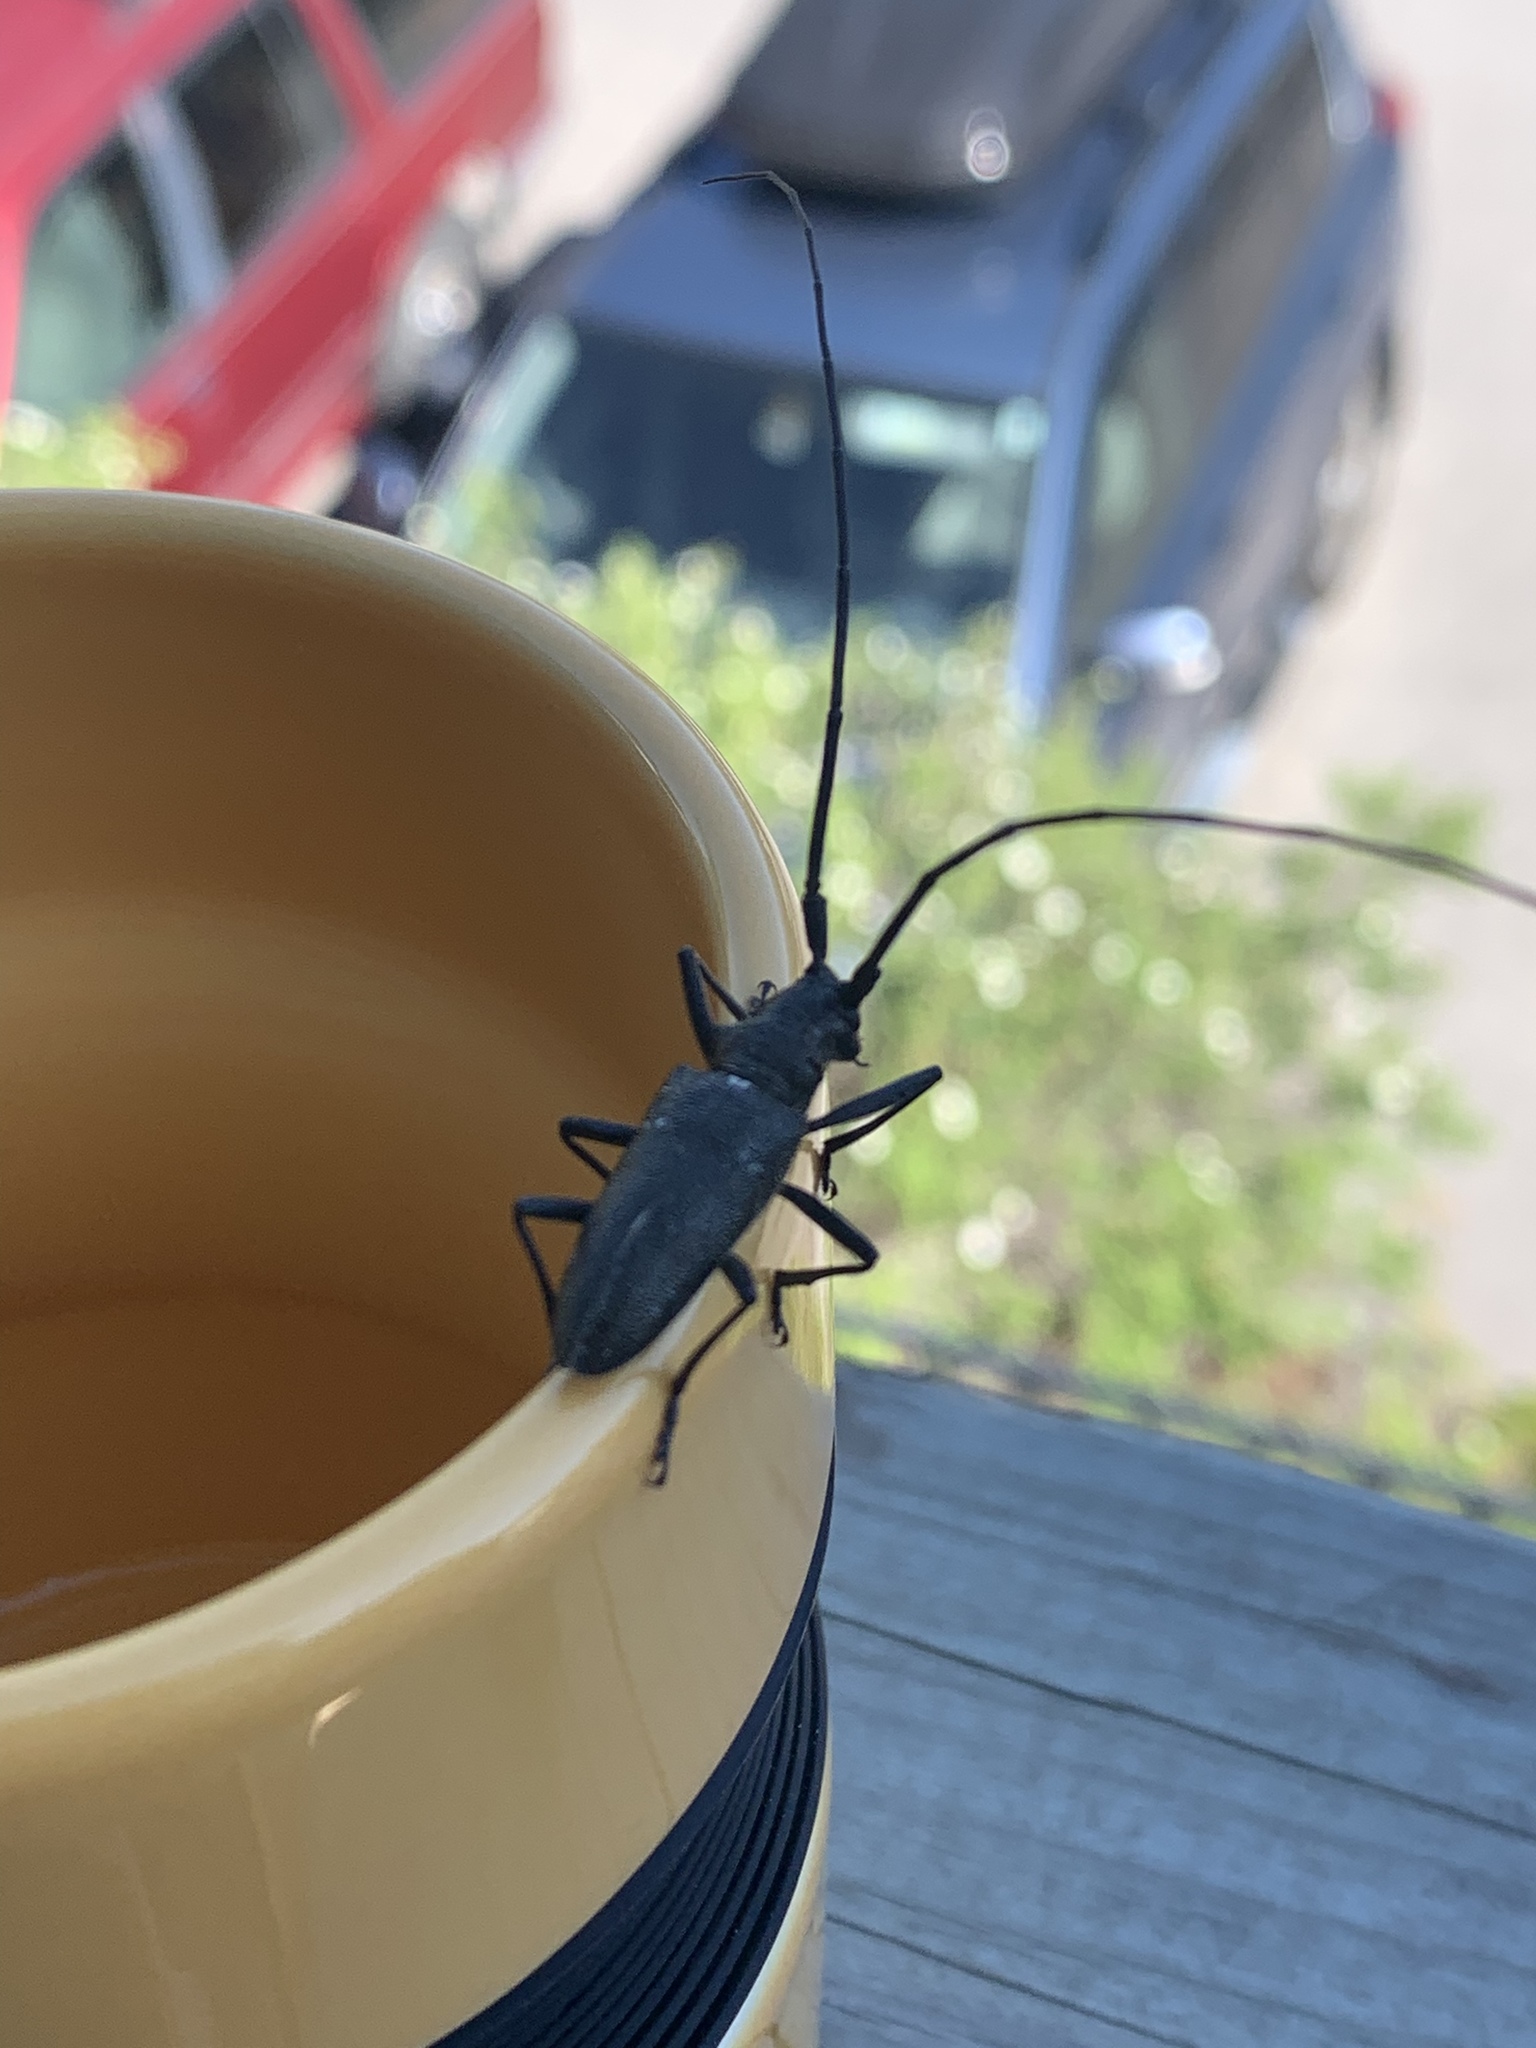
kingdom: Animalia
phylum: Arthropoda
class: Insecta
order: Coleoptera
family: Cerambycidae
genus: Monochamus
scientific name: Monochamus scutellatus
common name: White-spotted sawyer beetle
